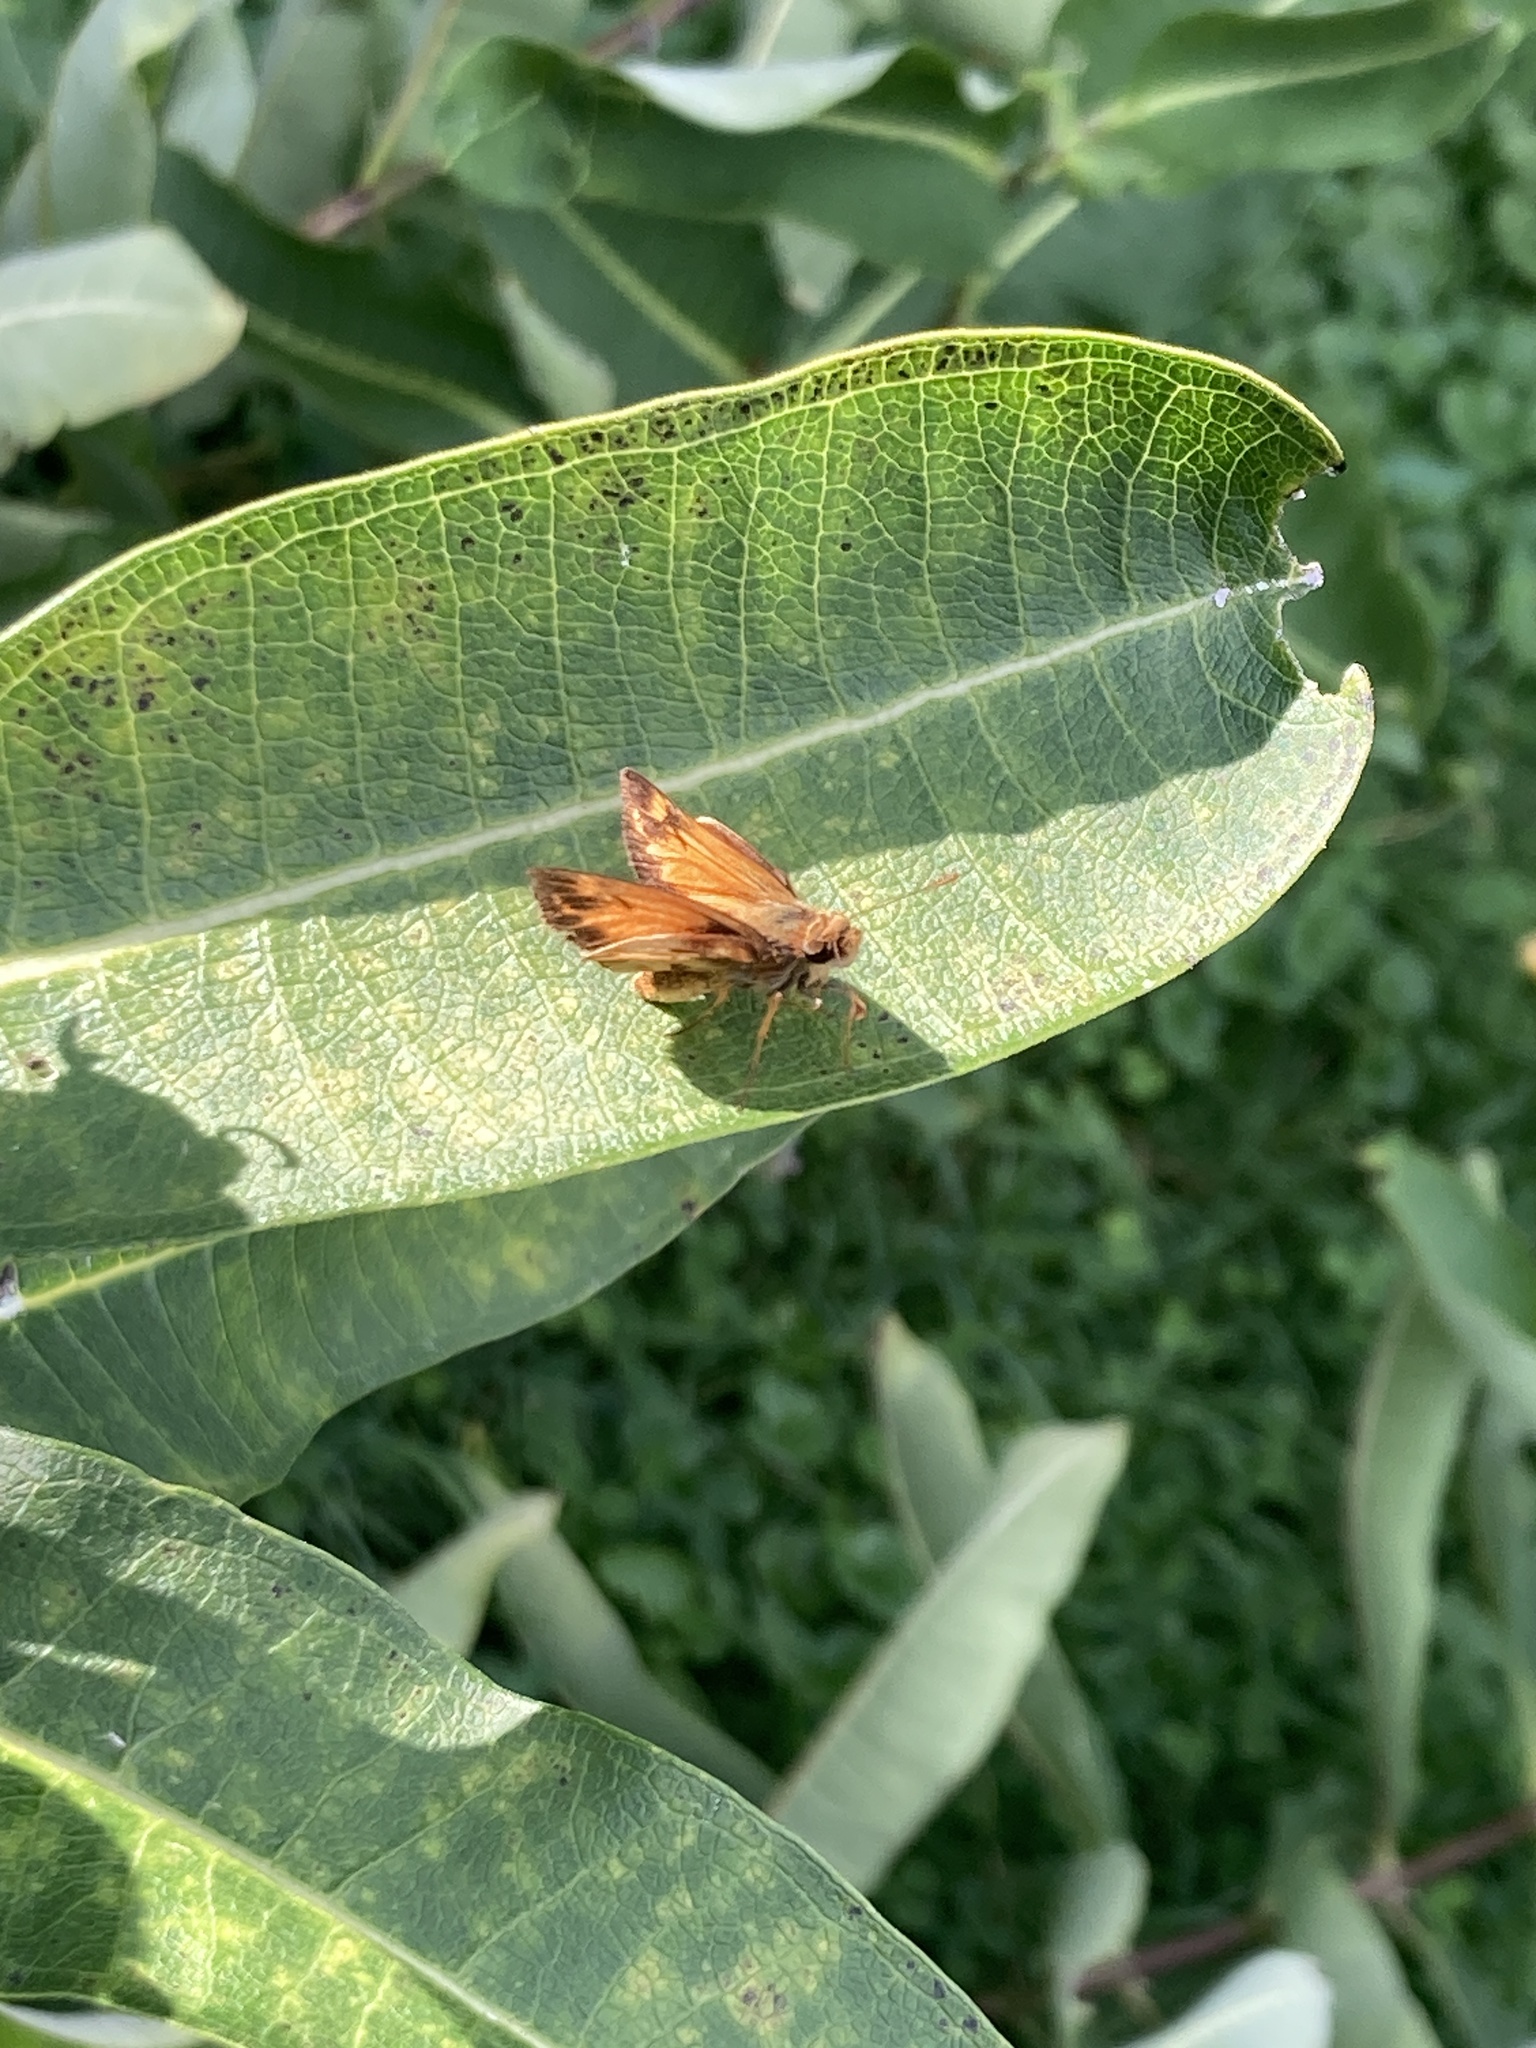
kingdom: Animalia
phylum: Arthropoda
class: Insecta
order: Lepidoptera
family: Hesperiidae
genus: Lon
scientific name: Lon zabulon
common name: Zabulon skipper
